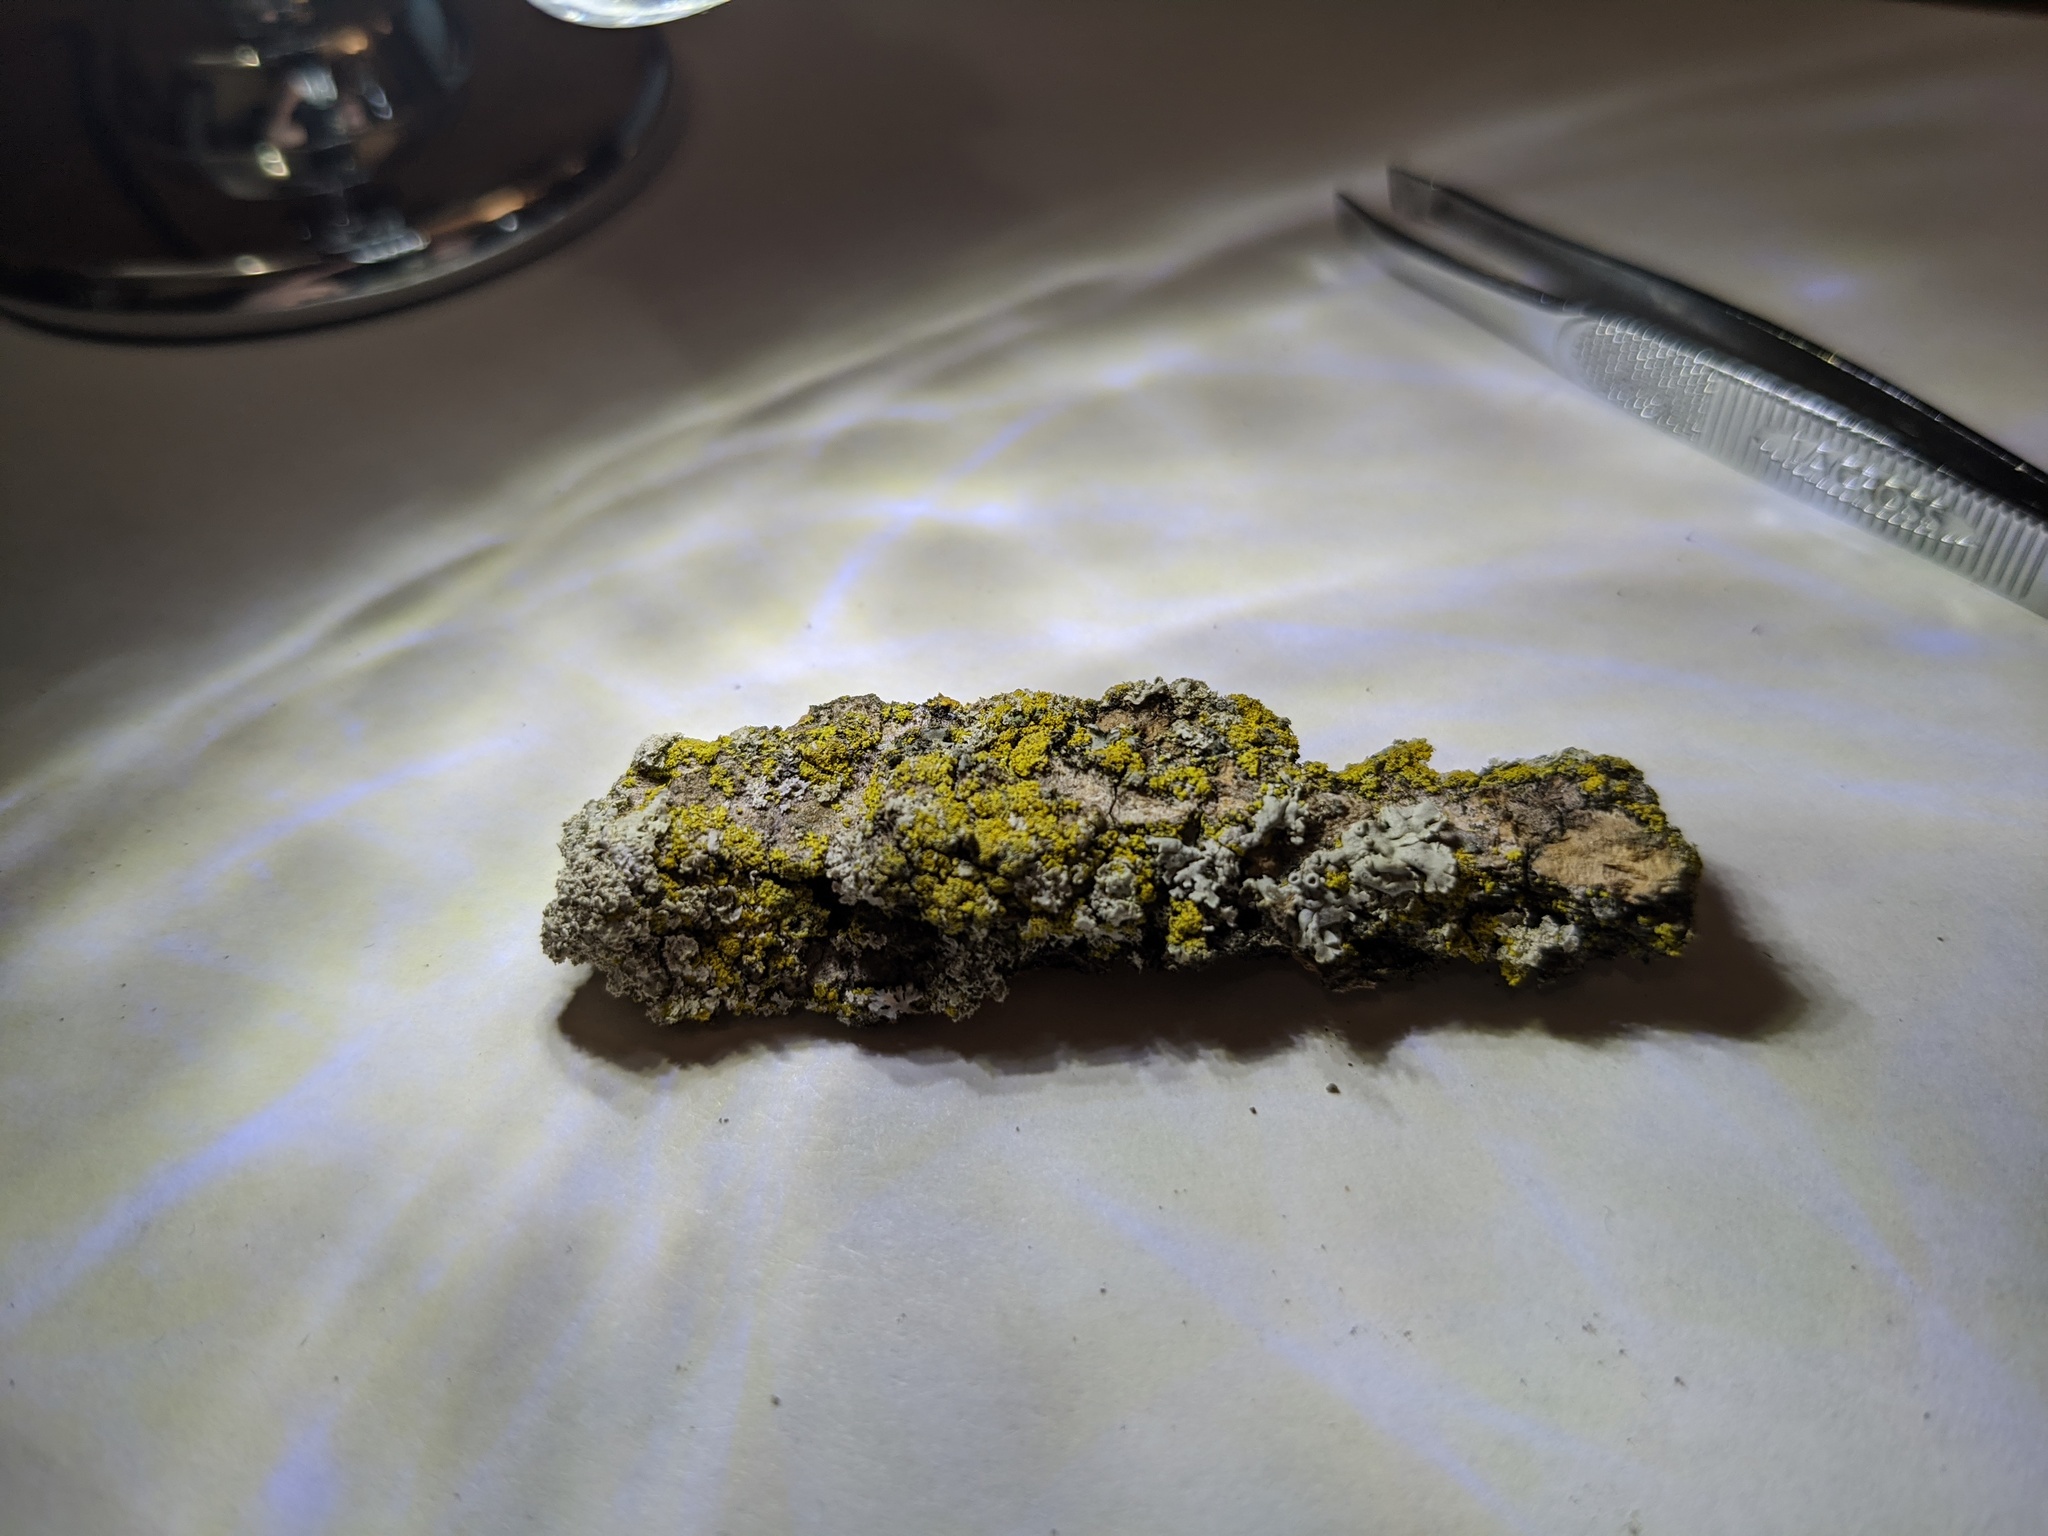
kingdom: Fungi
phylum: Ascomycota
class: Candelariomycetes
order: Candelariales
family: Candelariaceae
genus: Candelaria
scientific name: Candelaria concolor
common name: Candleflame lichen
